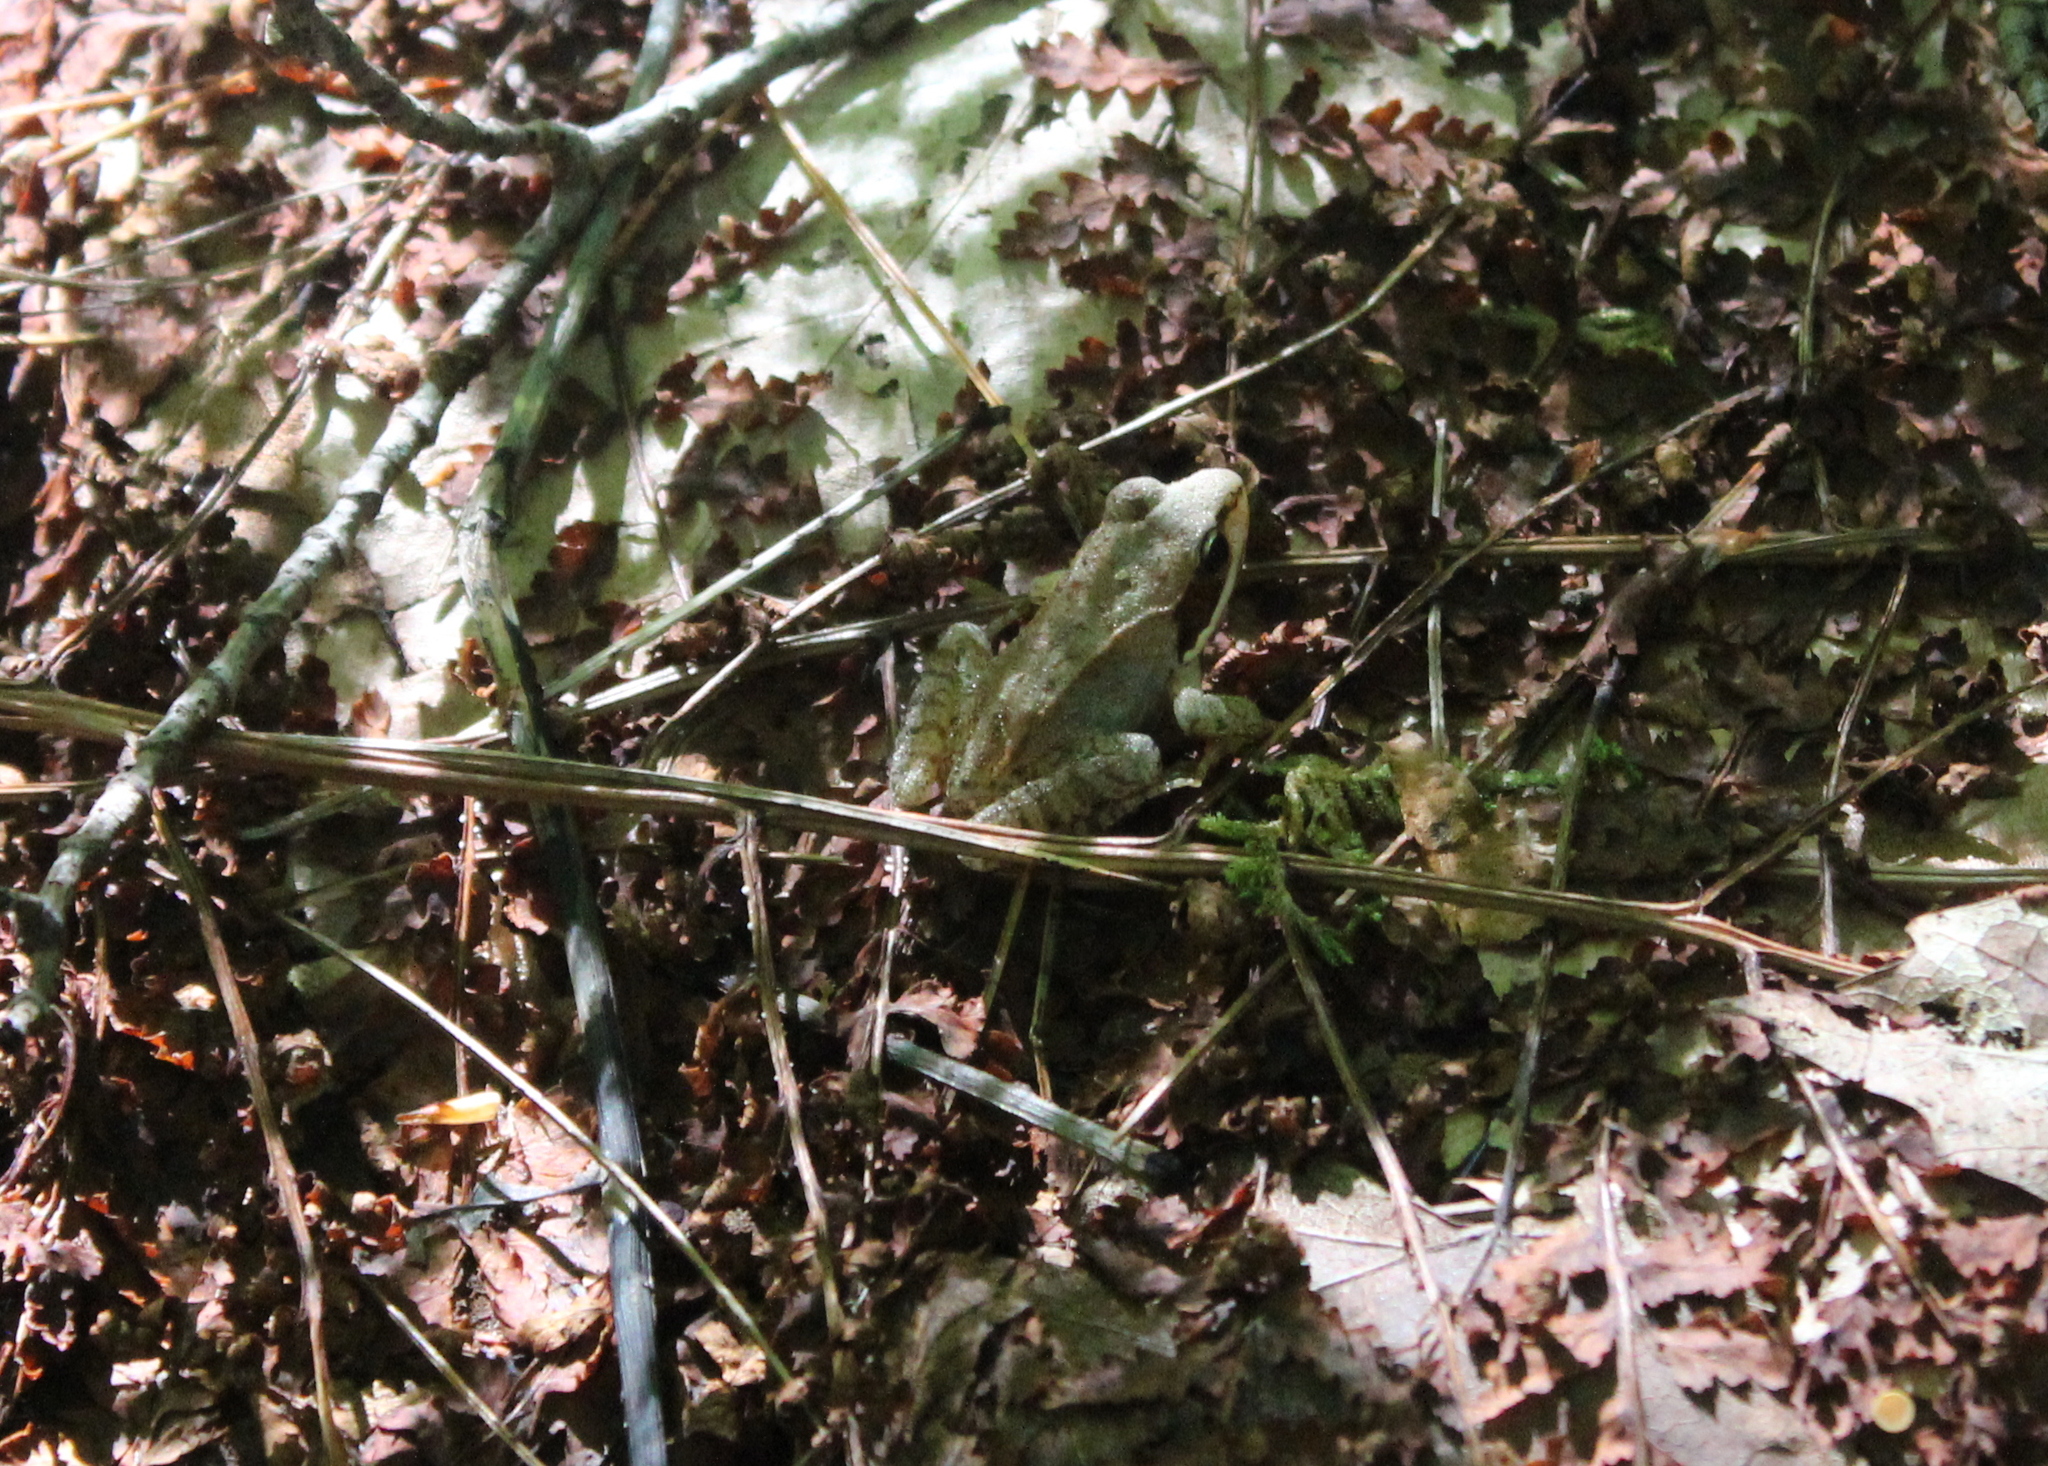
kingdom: Animalia
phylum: Chordata
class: Amphibia
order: Anura
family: Ranidae
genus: Lithobates
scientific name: Lithobates sylvaticus
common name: Wood frog
